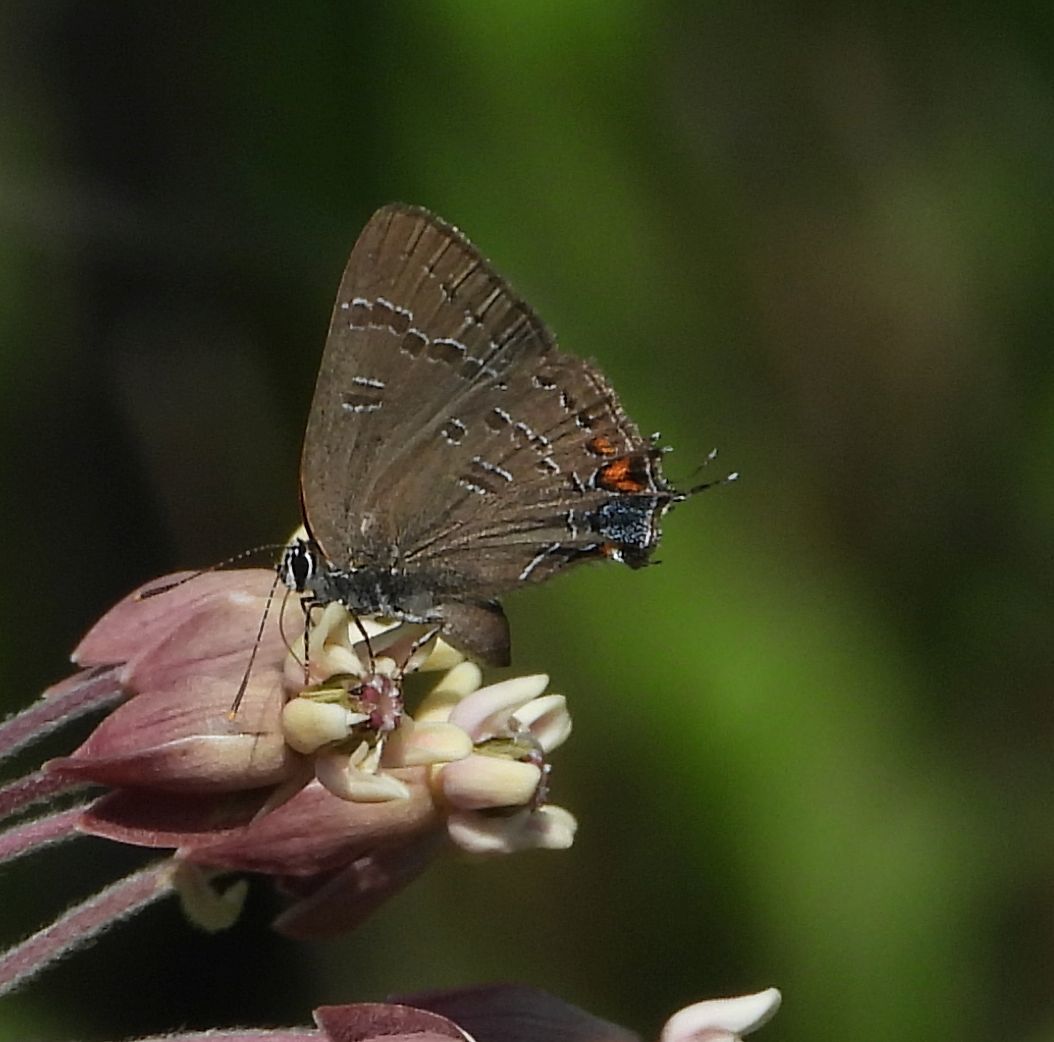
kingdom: Animalia
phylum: Arthropoda
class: Insecta
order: Lepidoptera
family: Lycaenidae
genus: Satyrium
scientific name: Satyrium calanus
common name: Banded hairstreak
